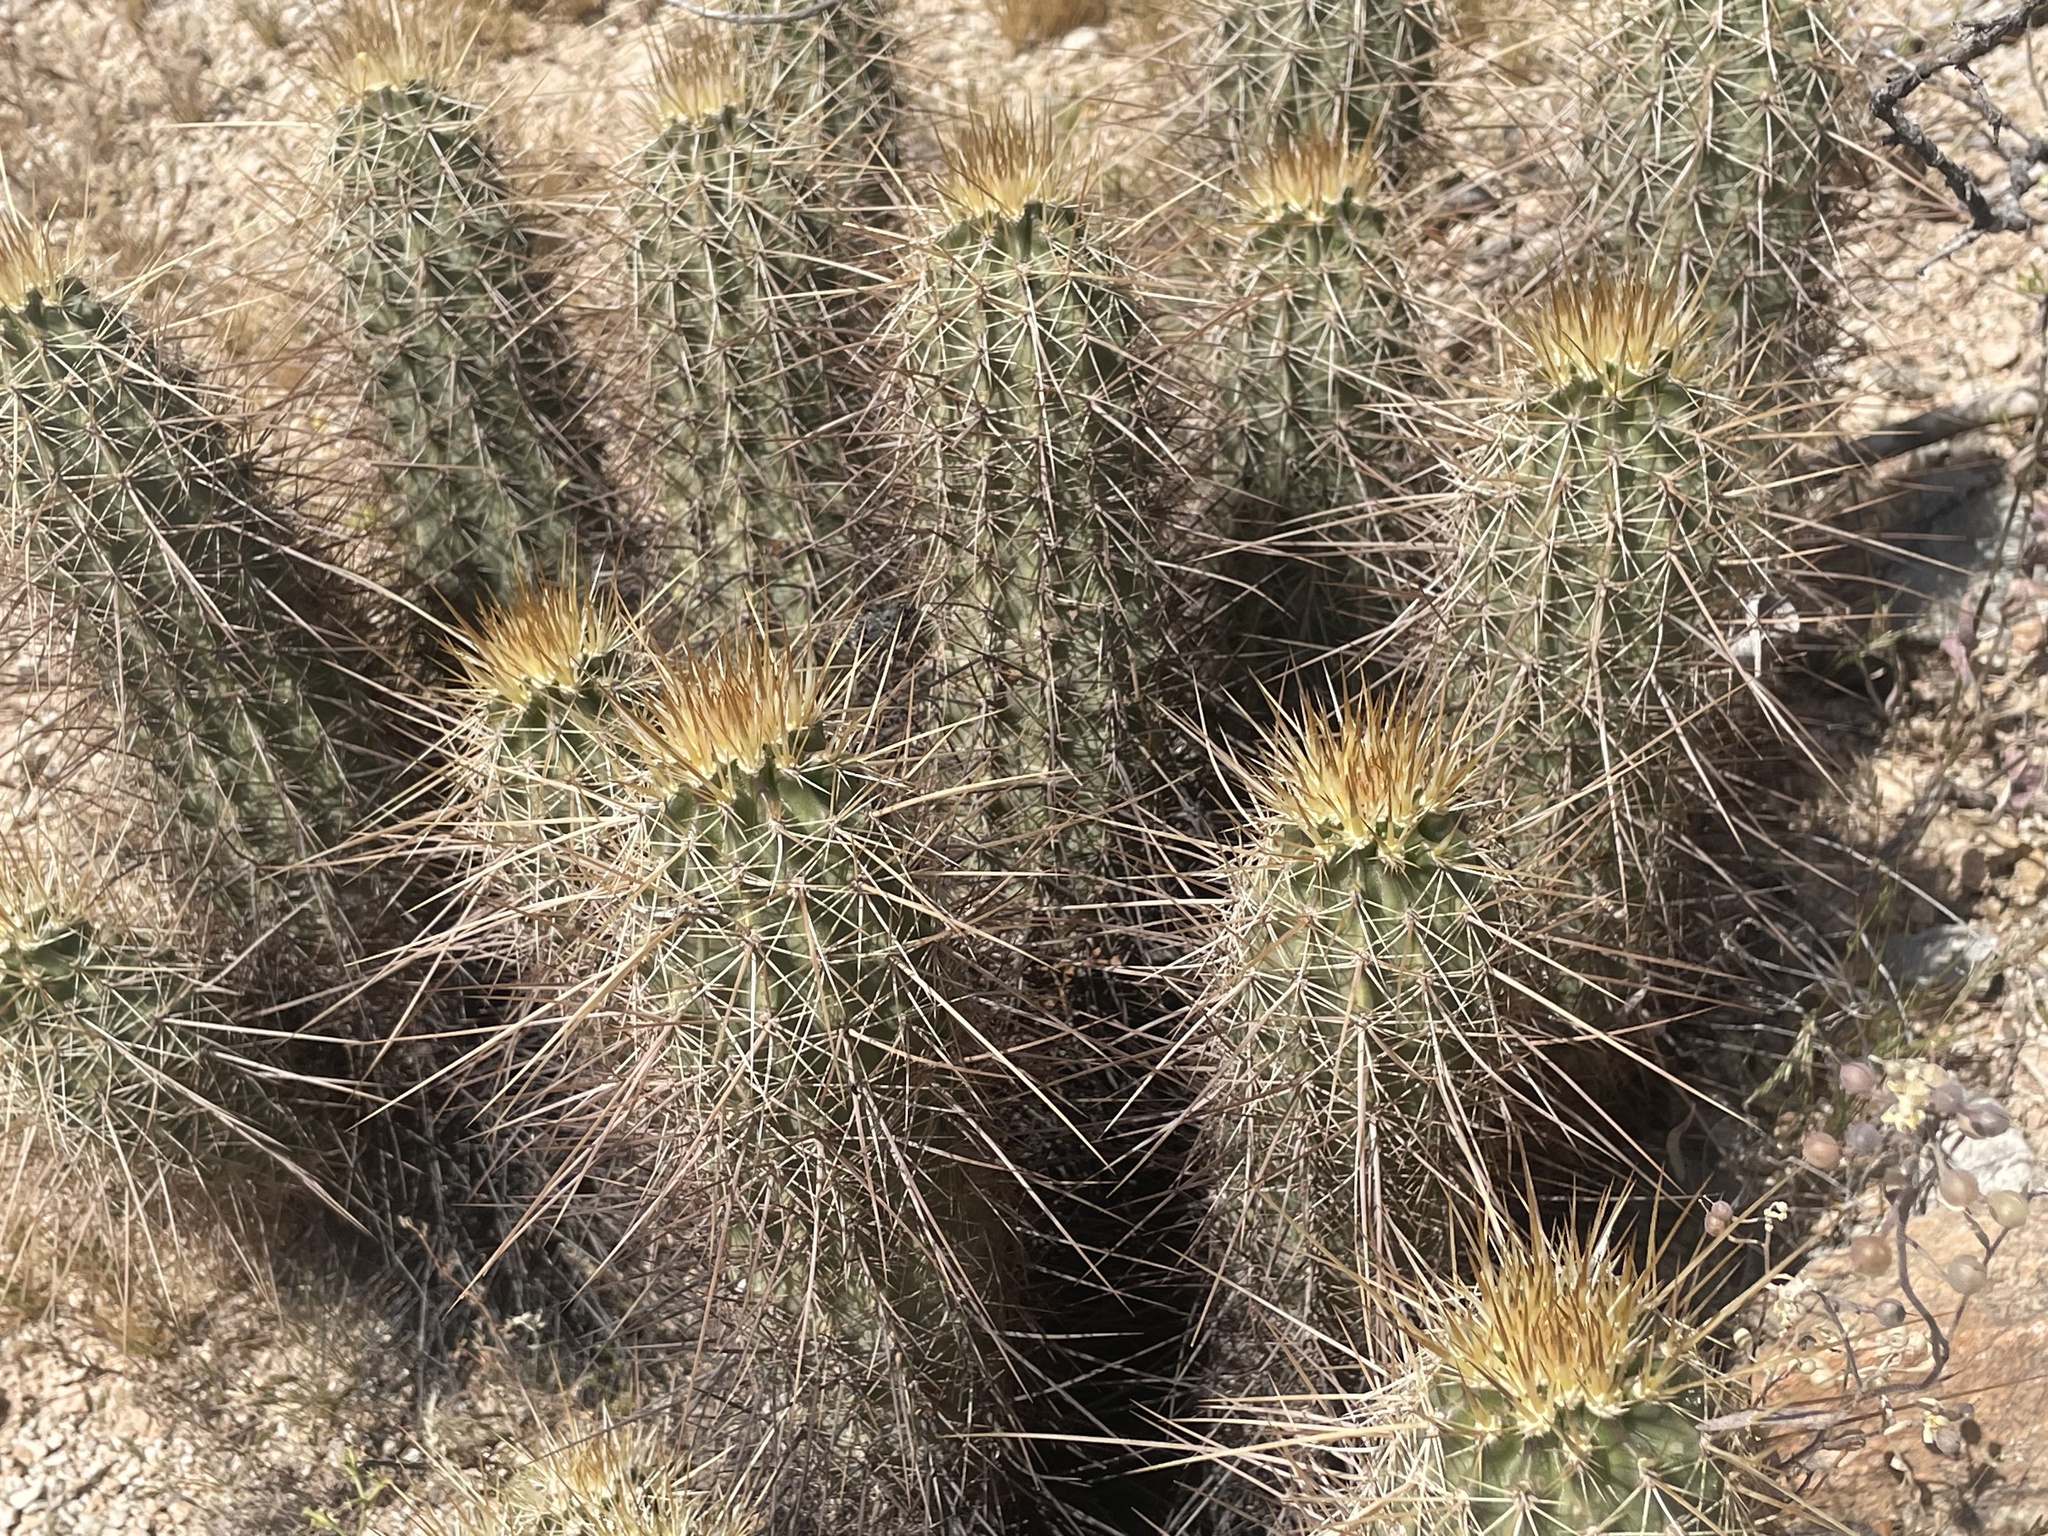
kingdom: Plantae
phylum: Tracheophyta
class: Magnoliopsida
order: Caryophyllales
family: Cactaceae
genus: Echinocereus
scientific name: Echinocereus engelmannii
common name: Engelmann's hedgehog cactus
